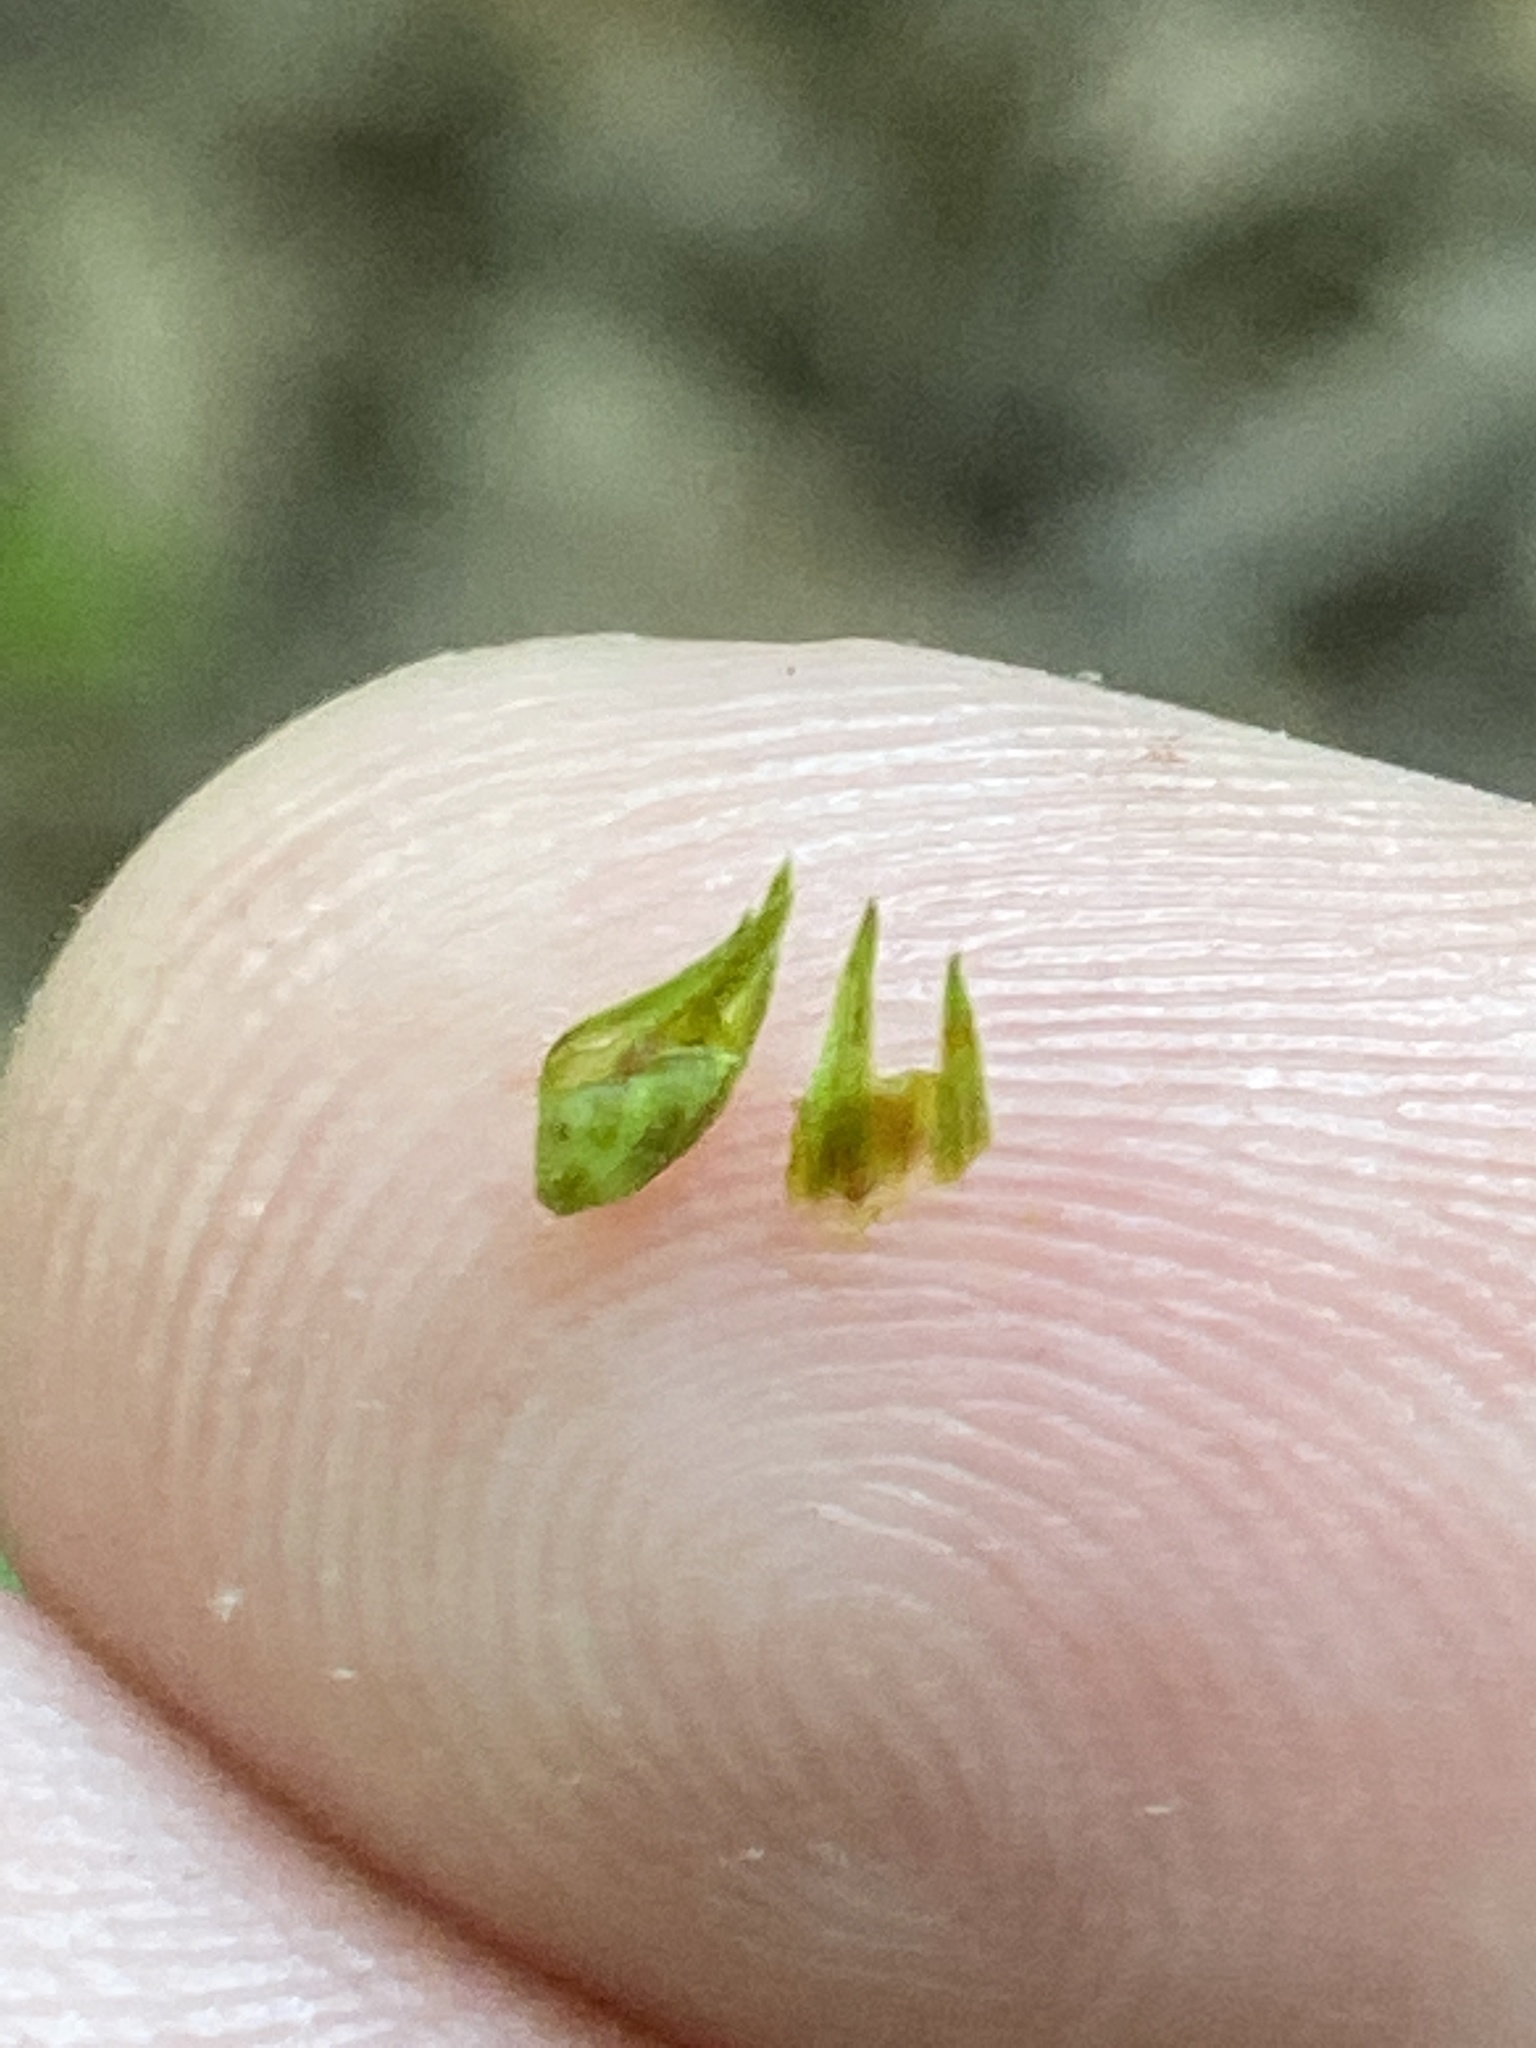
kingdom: Plantae
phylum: Tracheophyta
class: Magnoliopsida
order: Ericales
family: Primulaceae
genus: Lysimachia
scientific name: Lysimachia quadrifolia
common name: Whorled loosestrife
